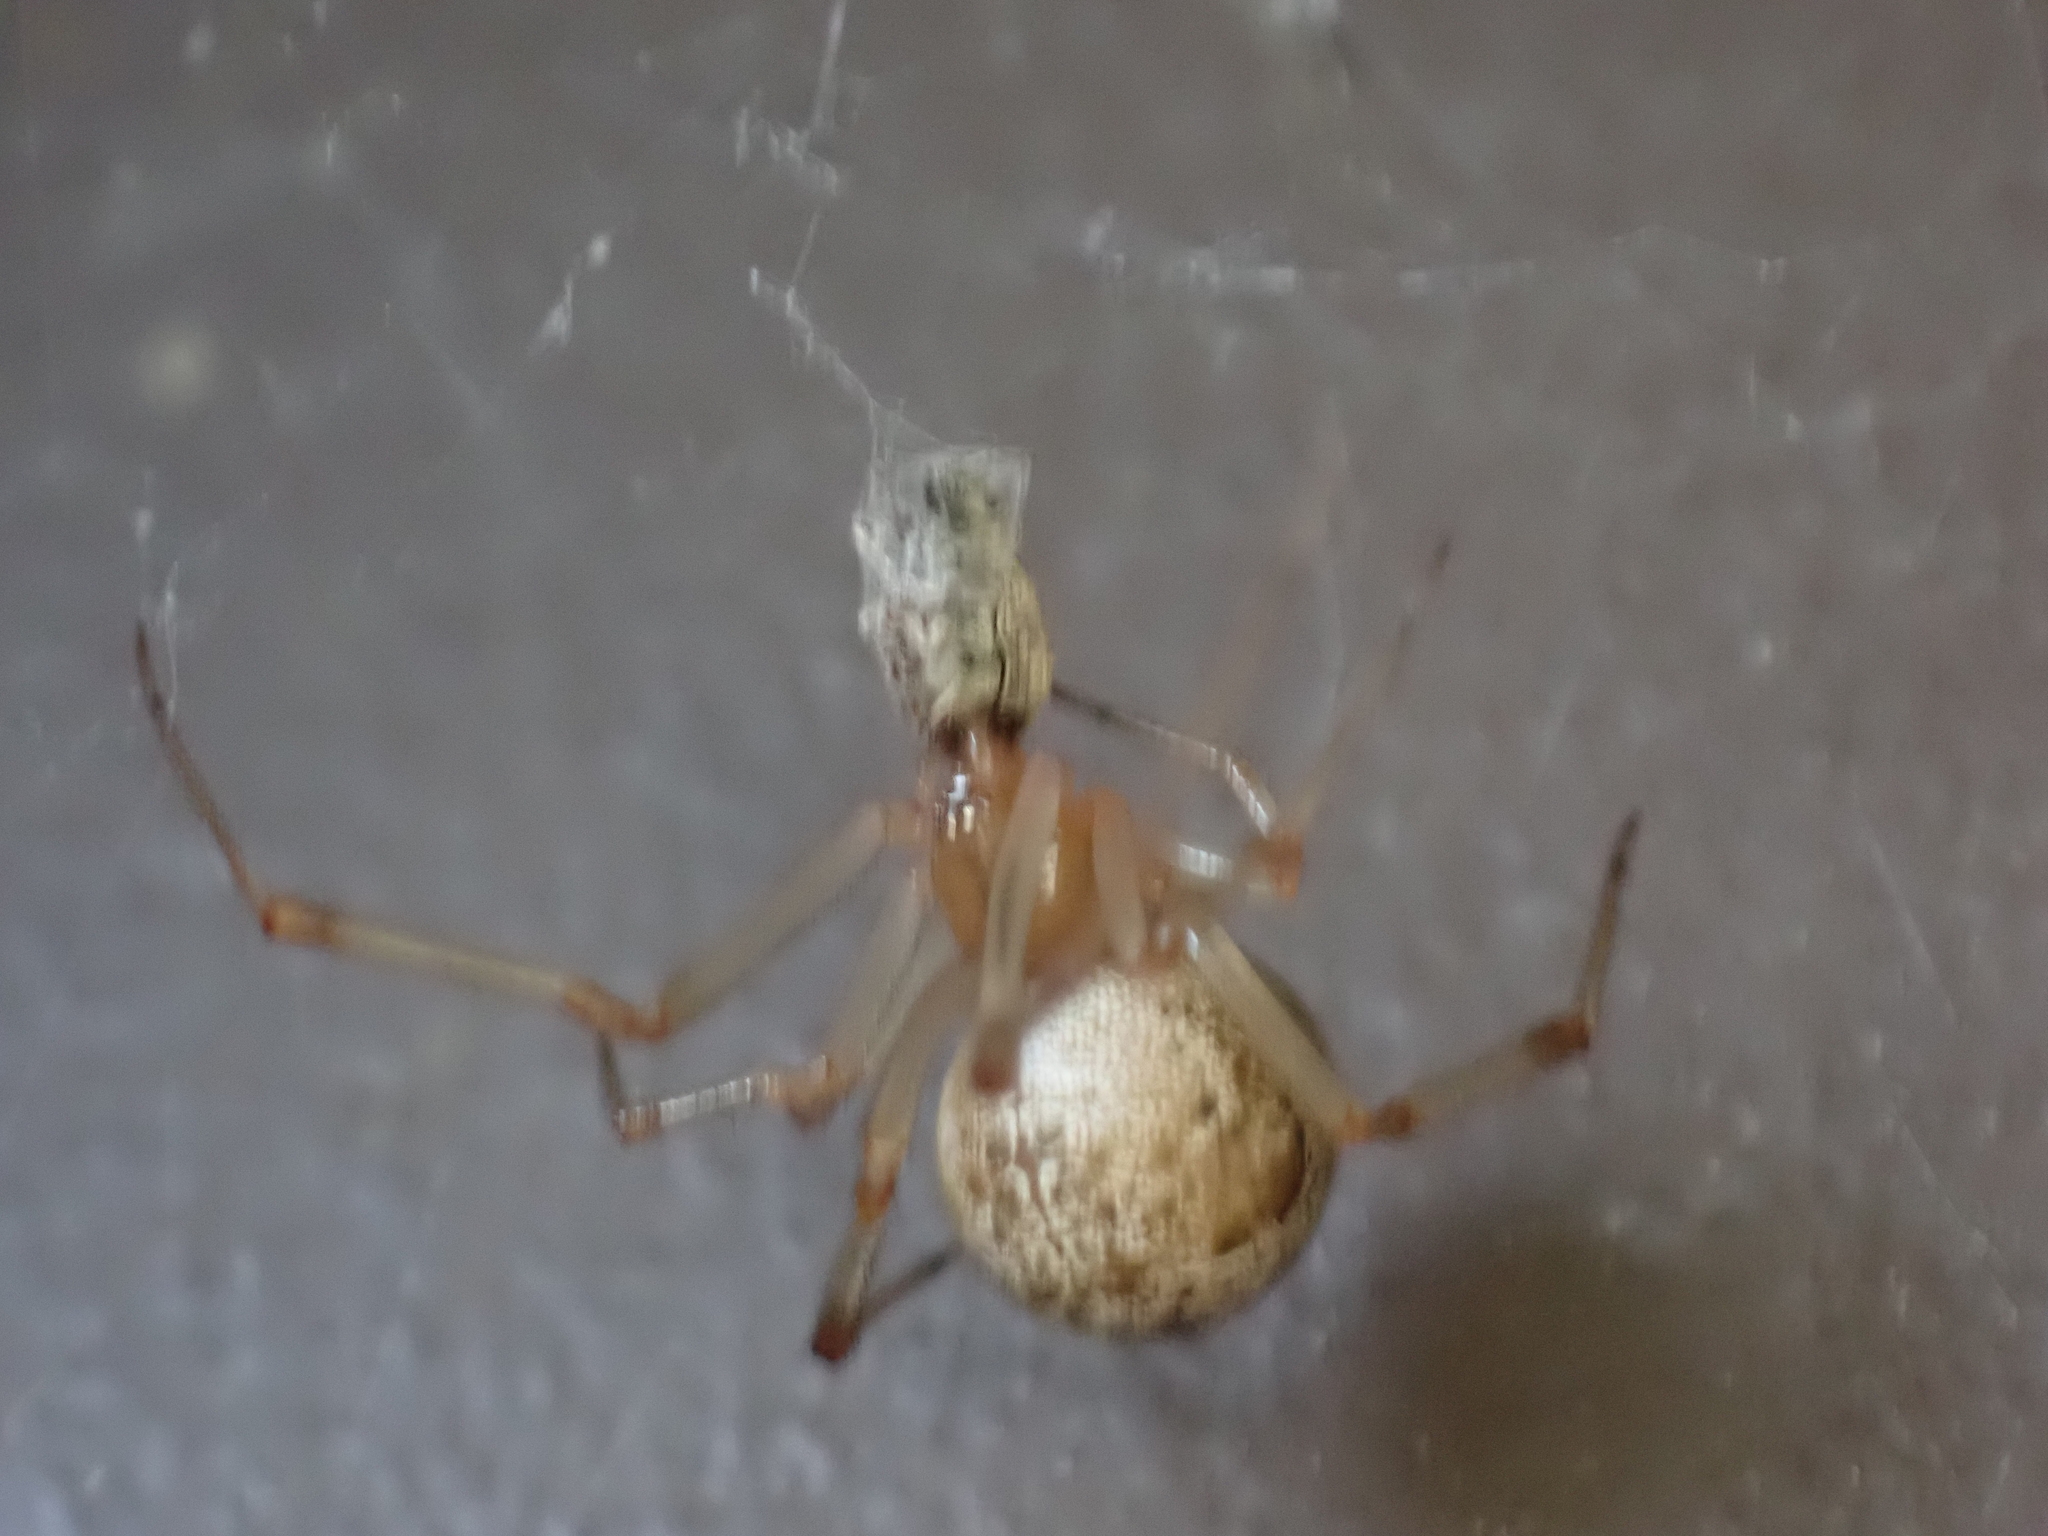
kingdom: Animalia
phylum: Arthropoda
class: Insecta
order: Coleoptera
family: Curculionidae
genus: Pseudoedophrys
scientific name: Pseudoedophrys hilleri
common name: Weevil
